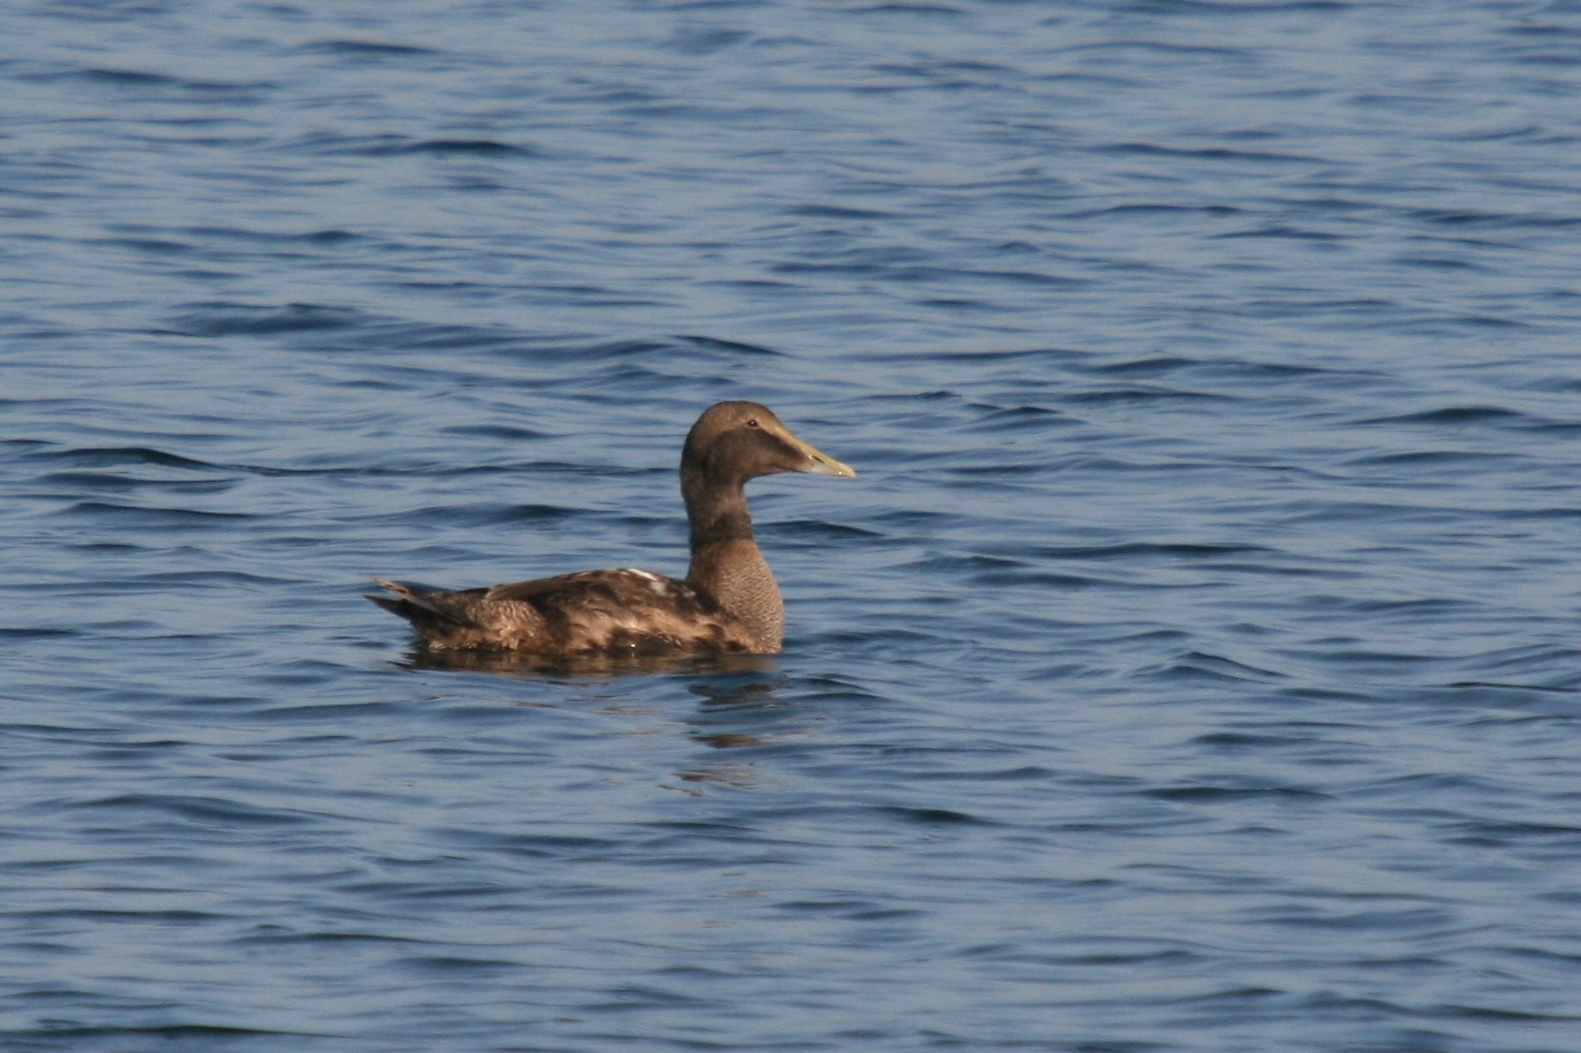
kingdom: Animalia
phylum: Chordata
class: Aves
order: Anseriformes
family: Anatidae
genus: Somateria
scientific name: Somateria mollissima
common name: Common eider
